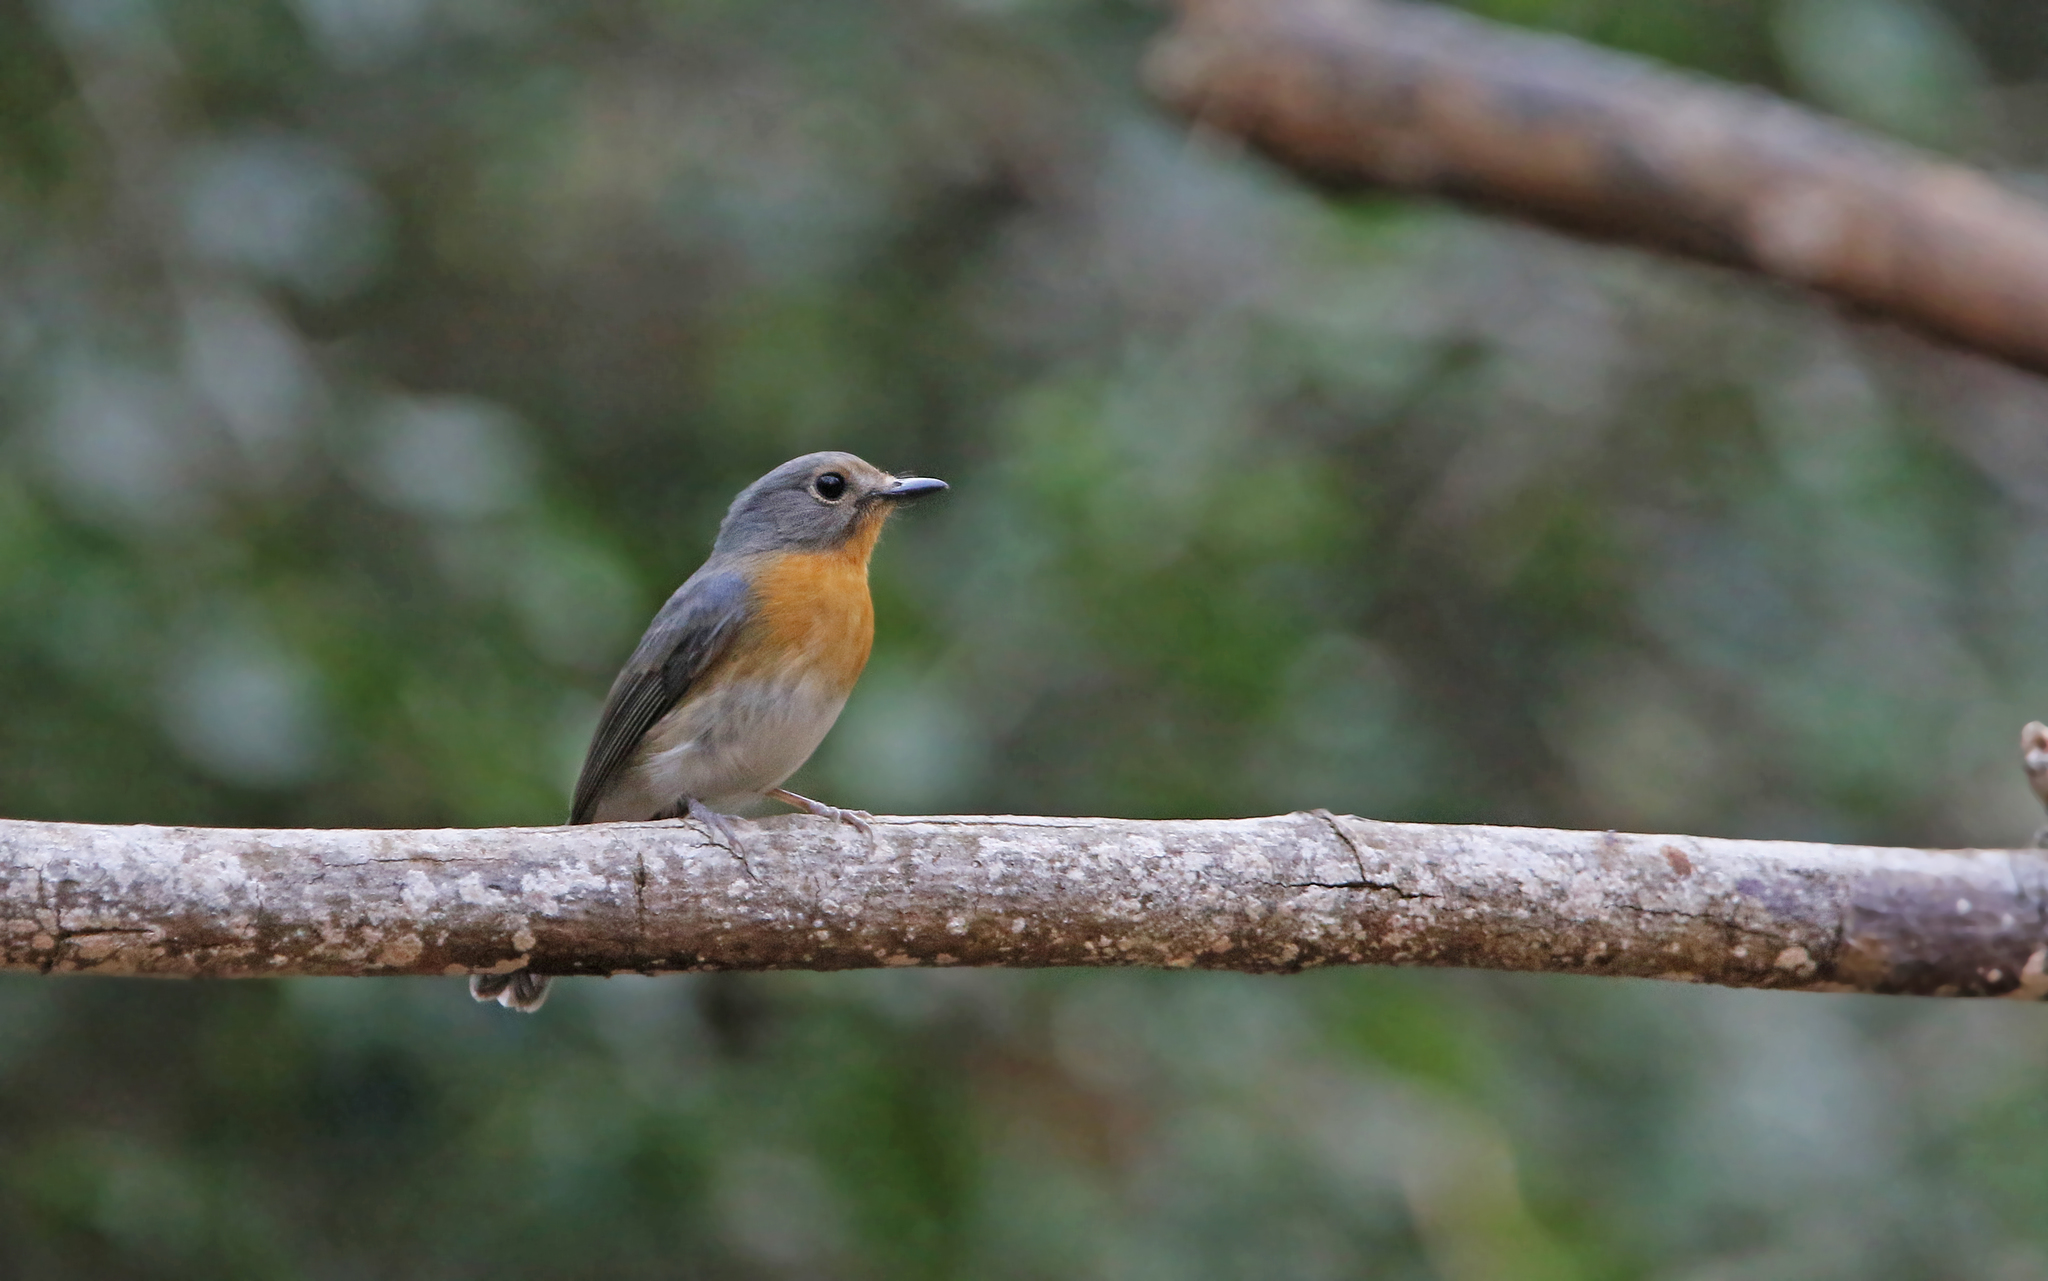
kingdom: Animalia
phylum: Chordata
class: Aves
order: Passeriformes
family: Muscicapidae
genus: Cyornis
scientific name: Cyornis tickelliae
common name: Tickell's blue flycatcher
